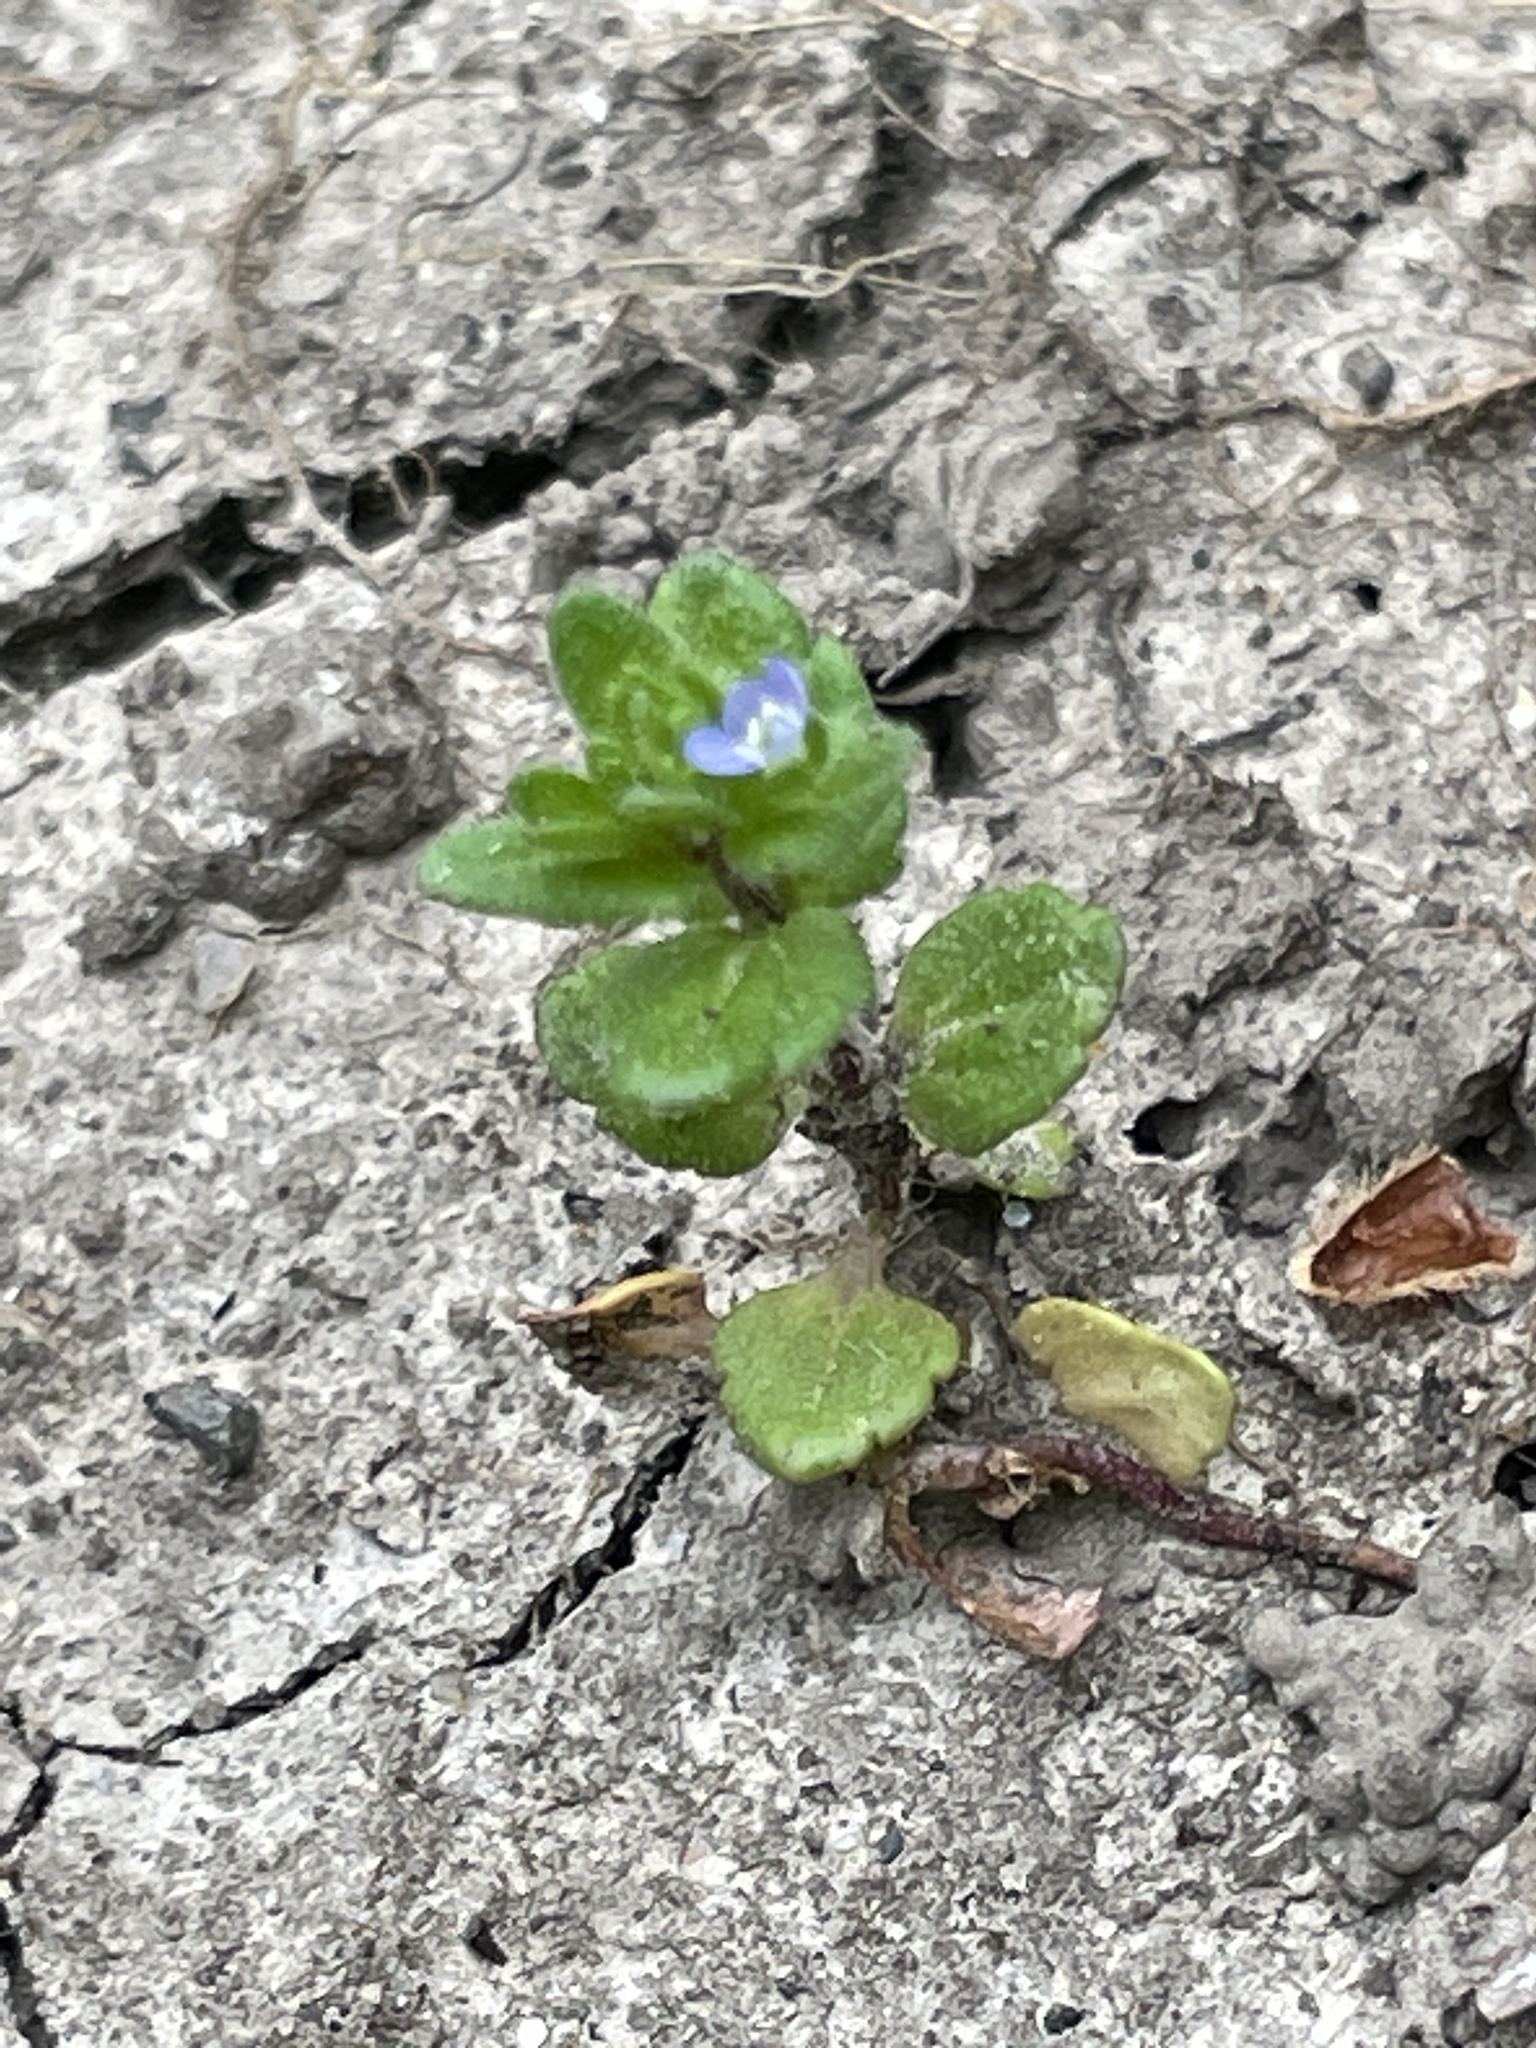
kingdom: Plantae
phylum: Tracheophyta
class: Magnoliopsida
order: Lamiales
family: Plantaginaceae
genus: Veronica
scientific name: Veronica arvensis
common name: Corn speedwell
